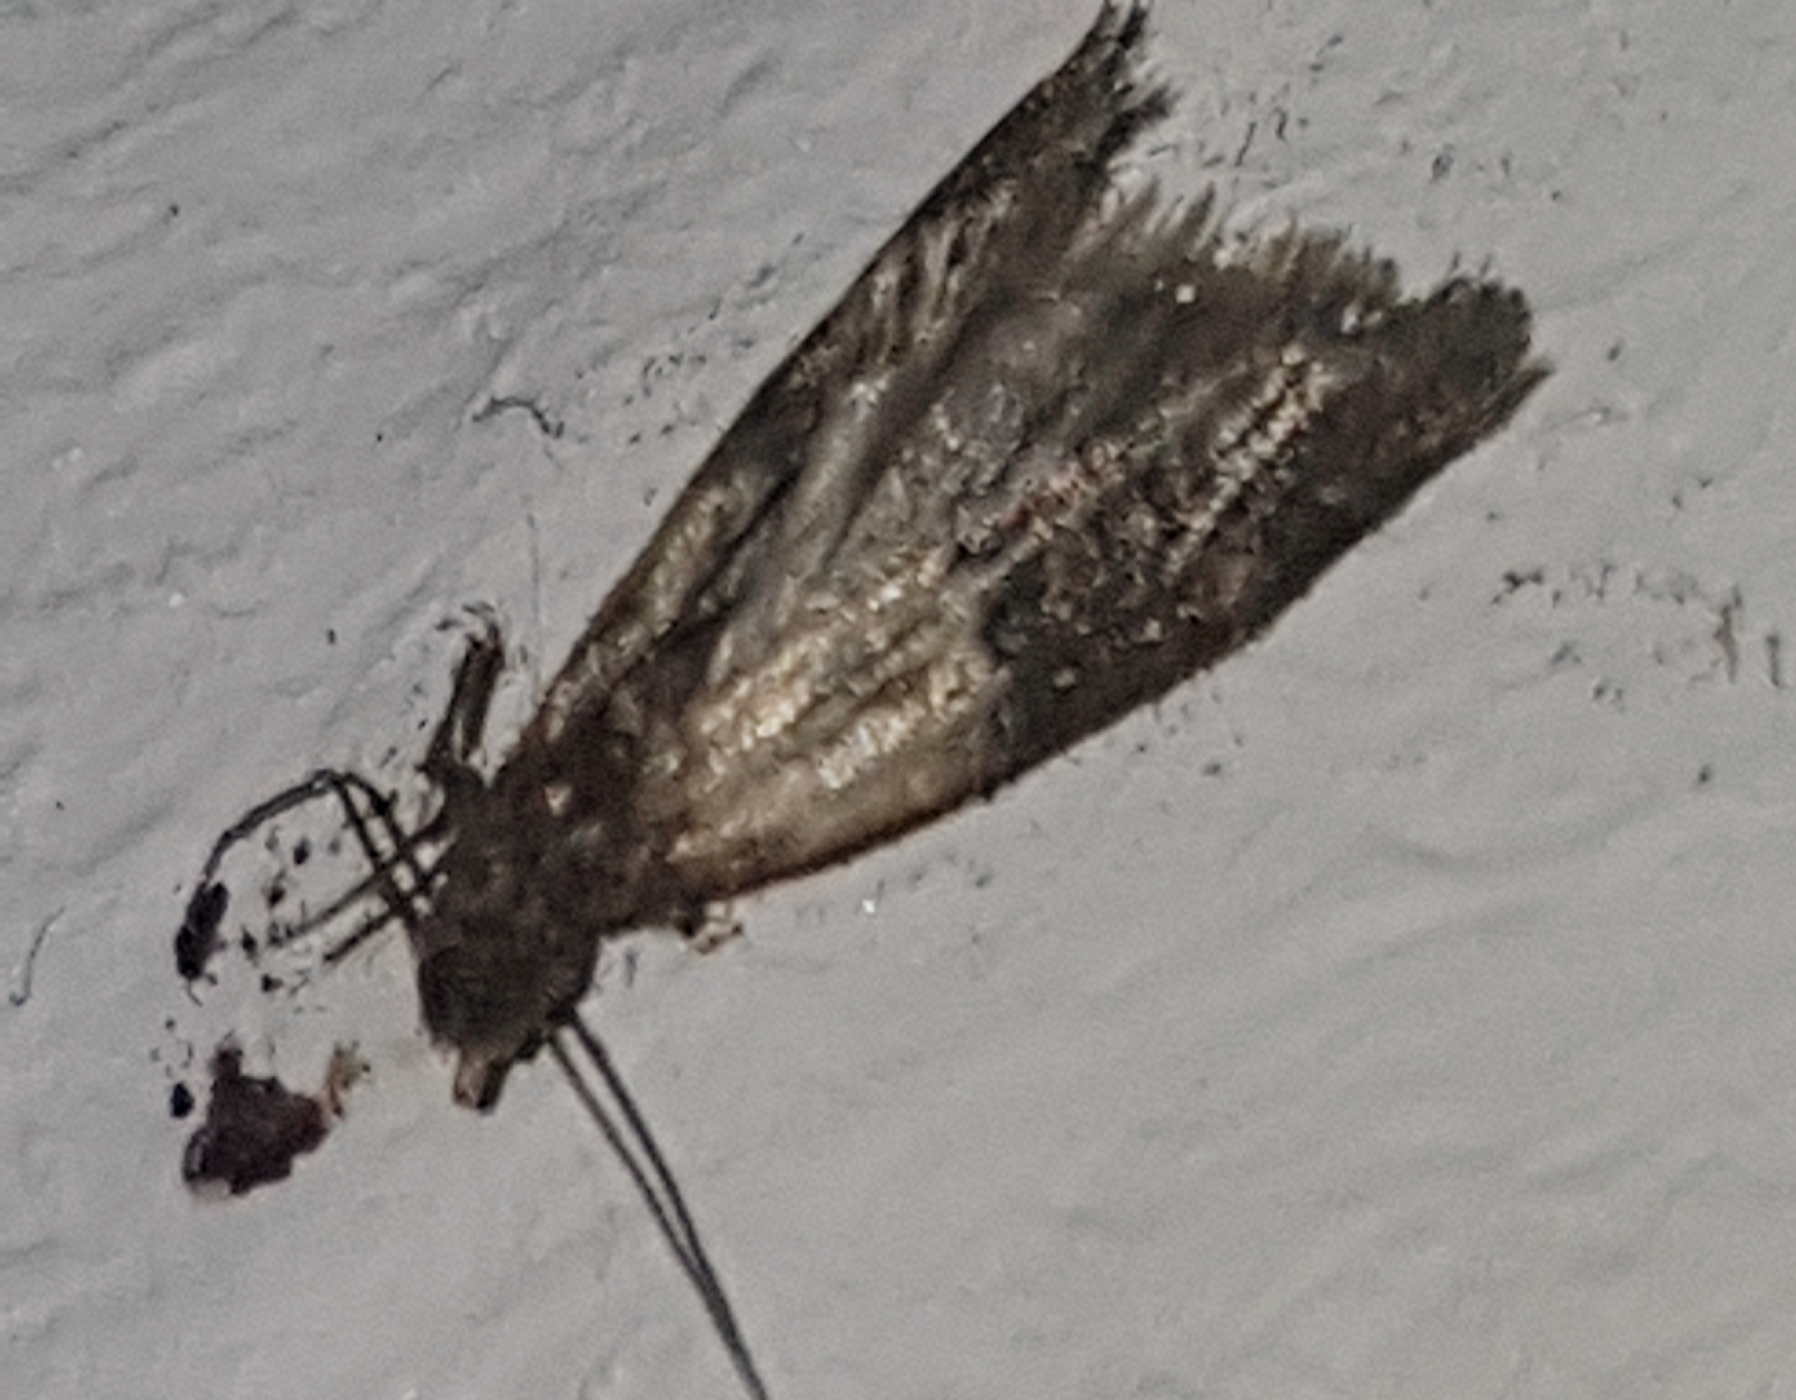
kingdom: Animalia
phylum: Arthropoda
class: Insecta
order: Lepidoptera
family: Pyralidae
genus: Plodia
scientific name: Plodia interpunctella
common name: Indian meal moth
